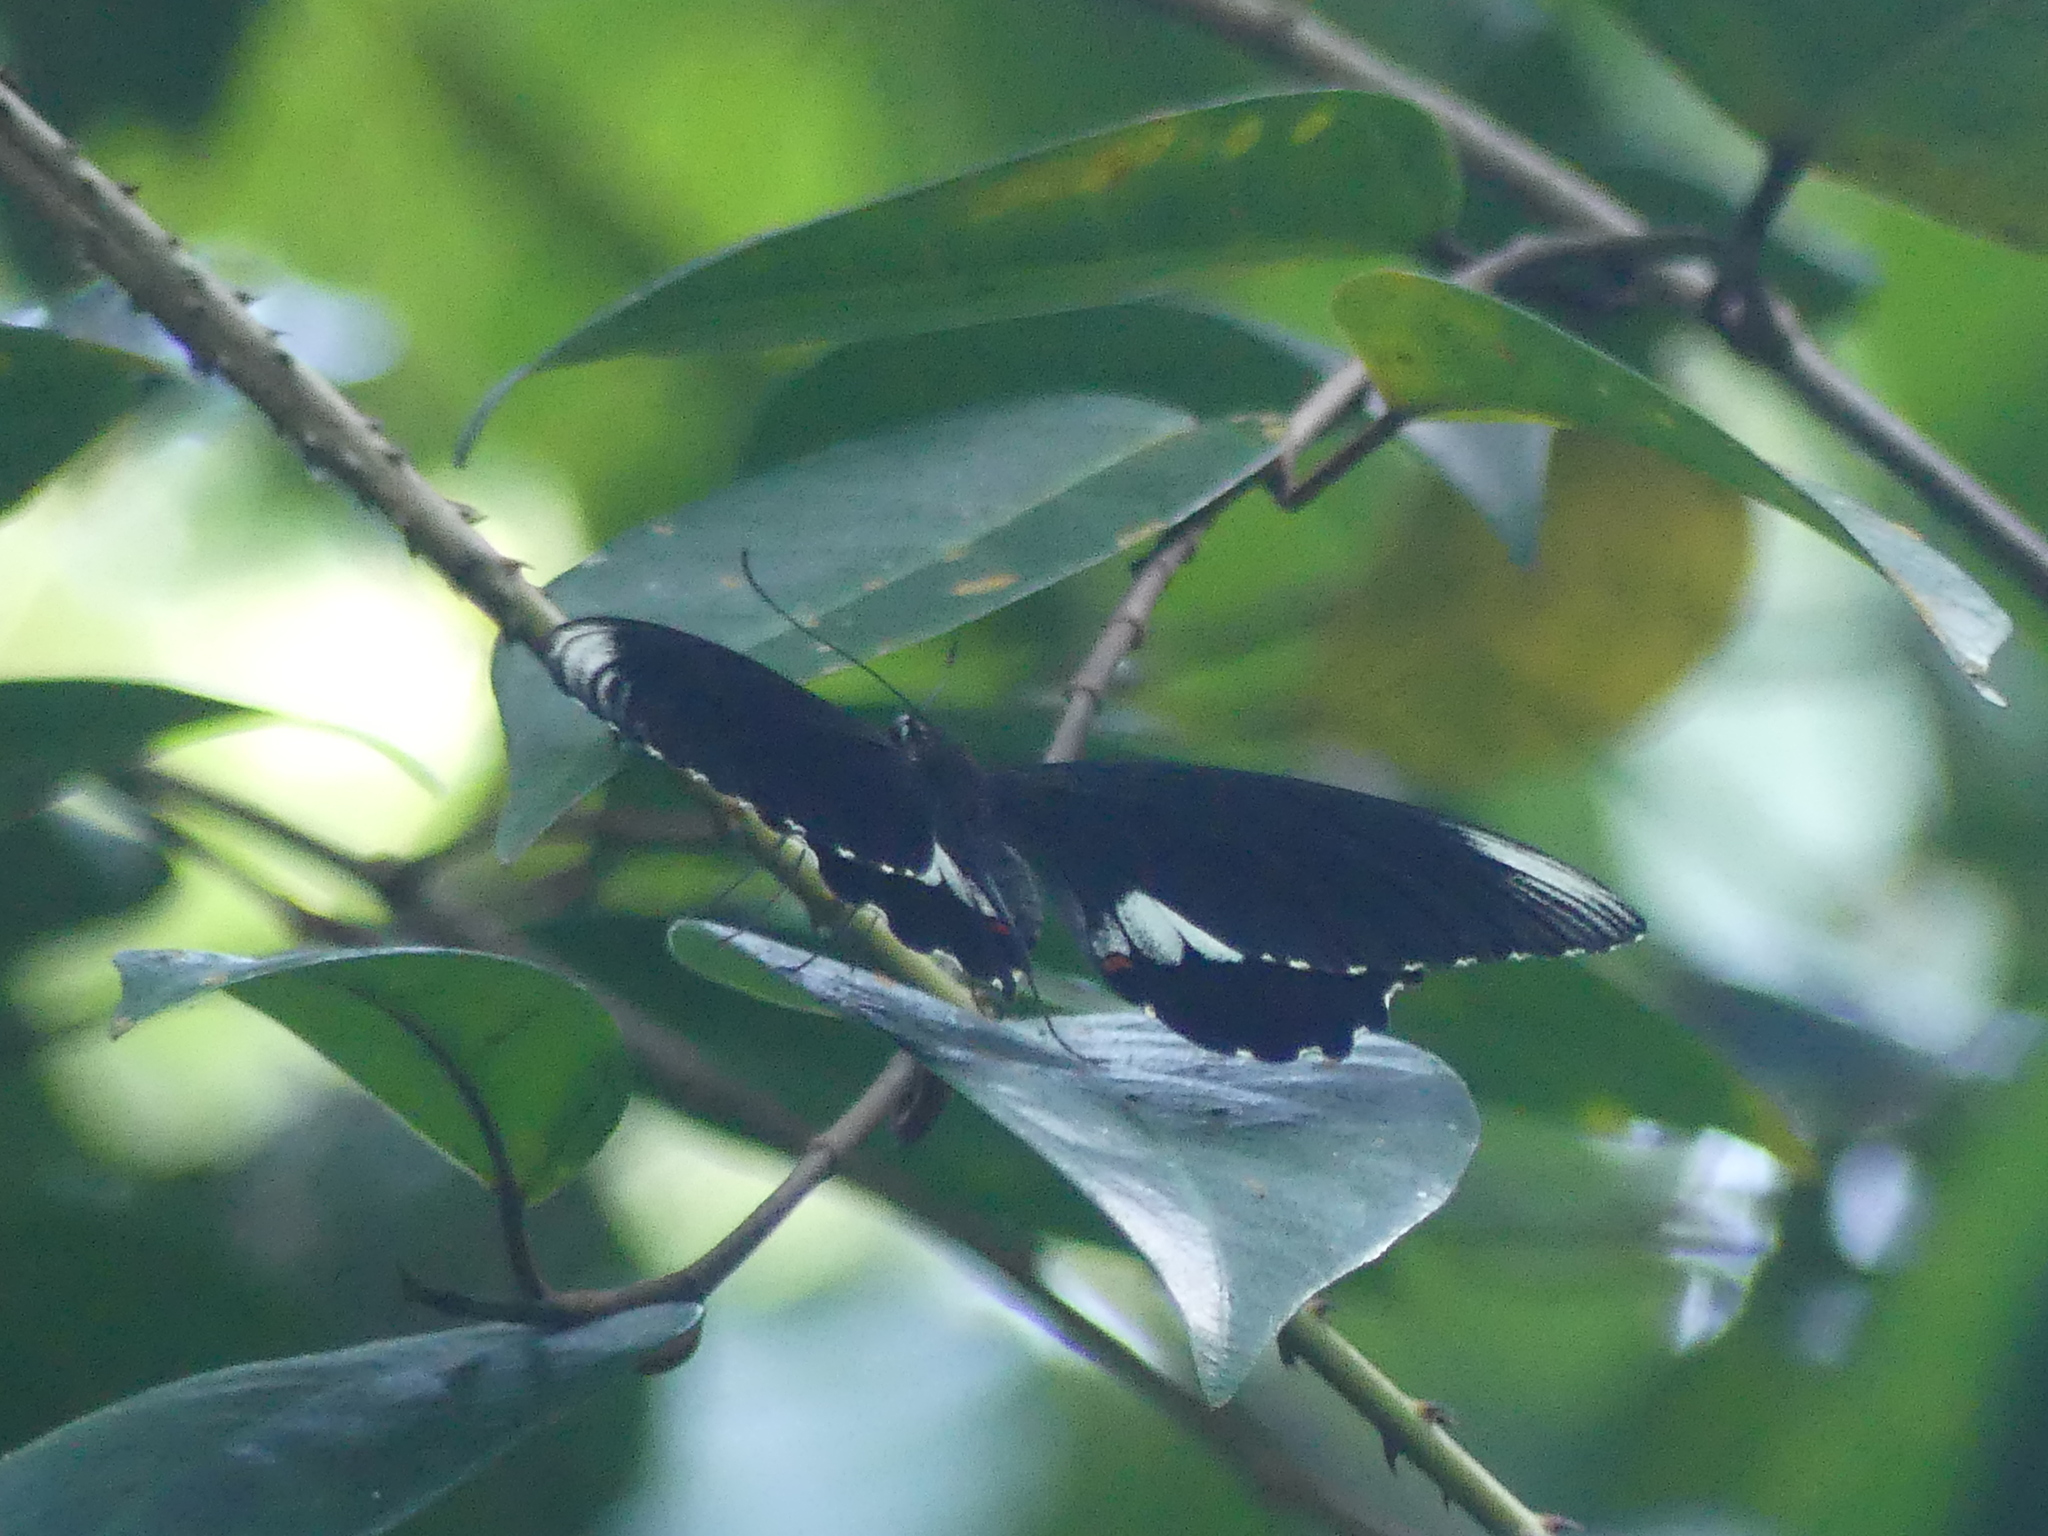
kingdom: Animalia
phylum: Arthropoda
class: Insecta
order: Lepidoptera
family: Papilionidae
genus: Papilio
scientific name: Papilio ambrax
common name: Ambrax butterfly
